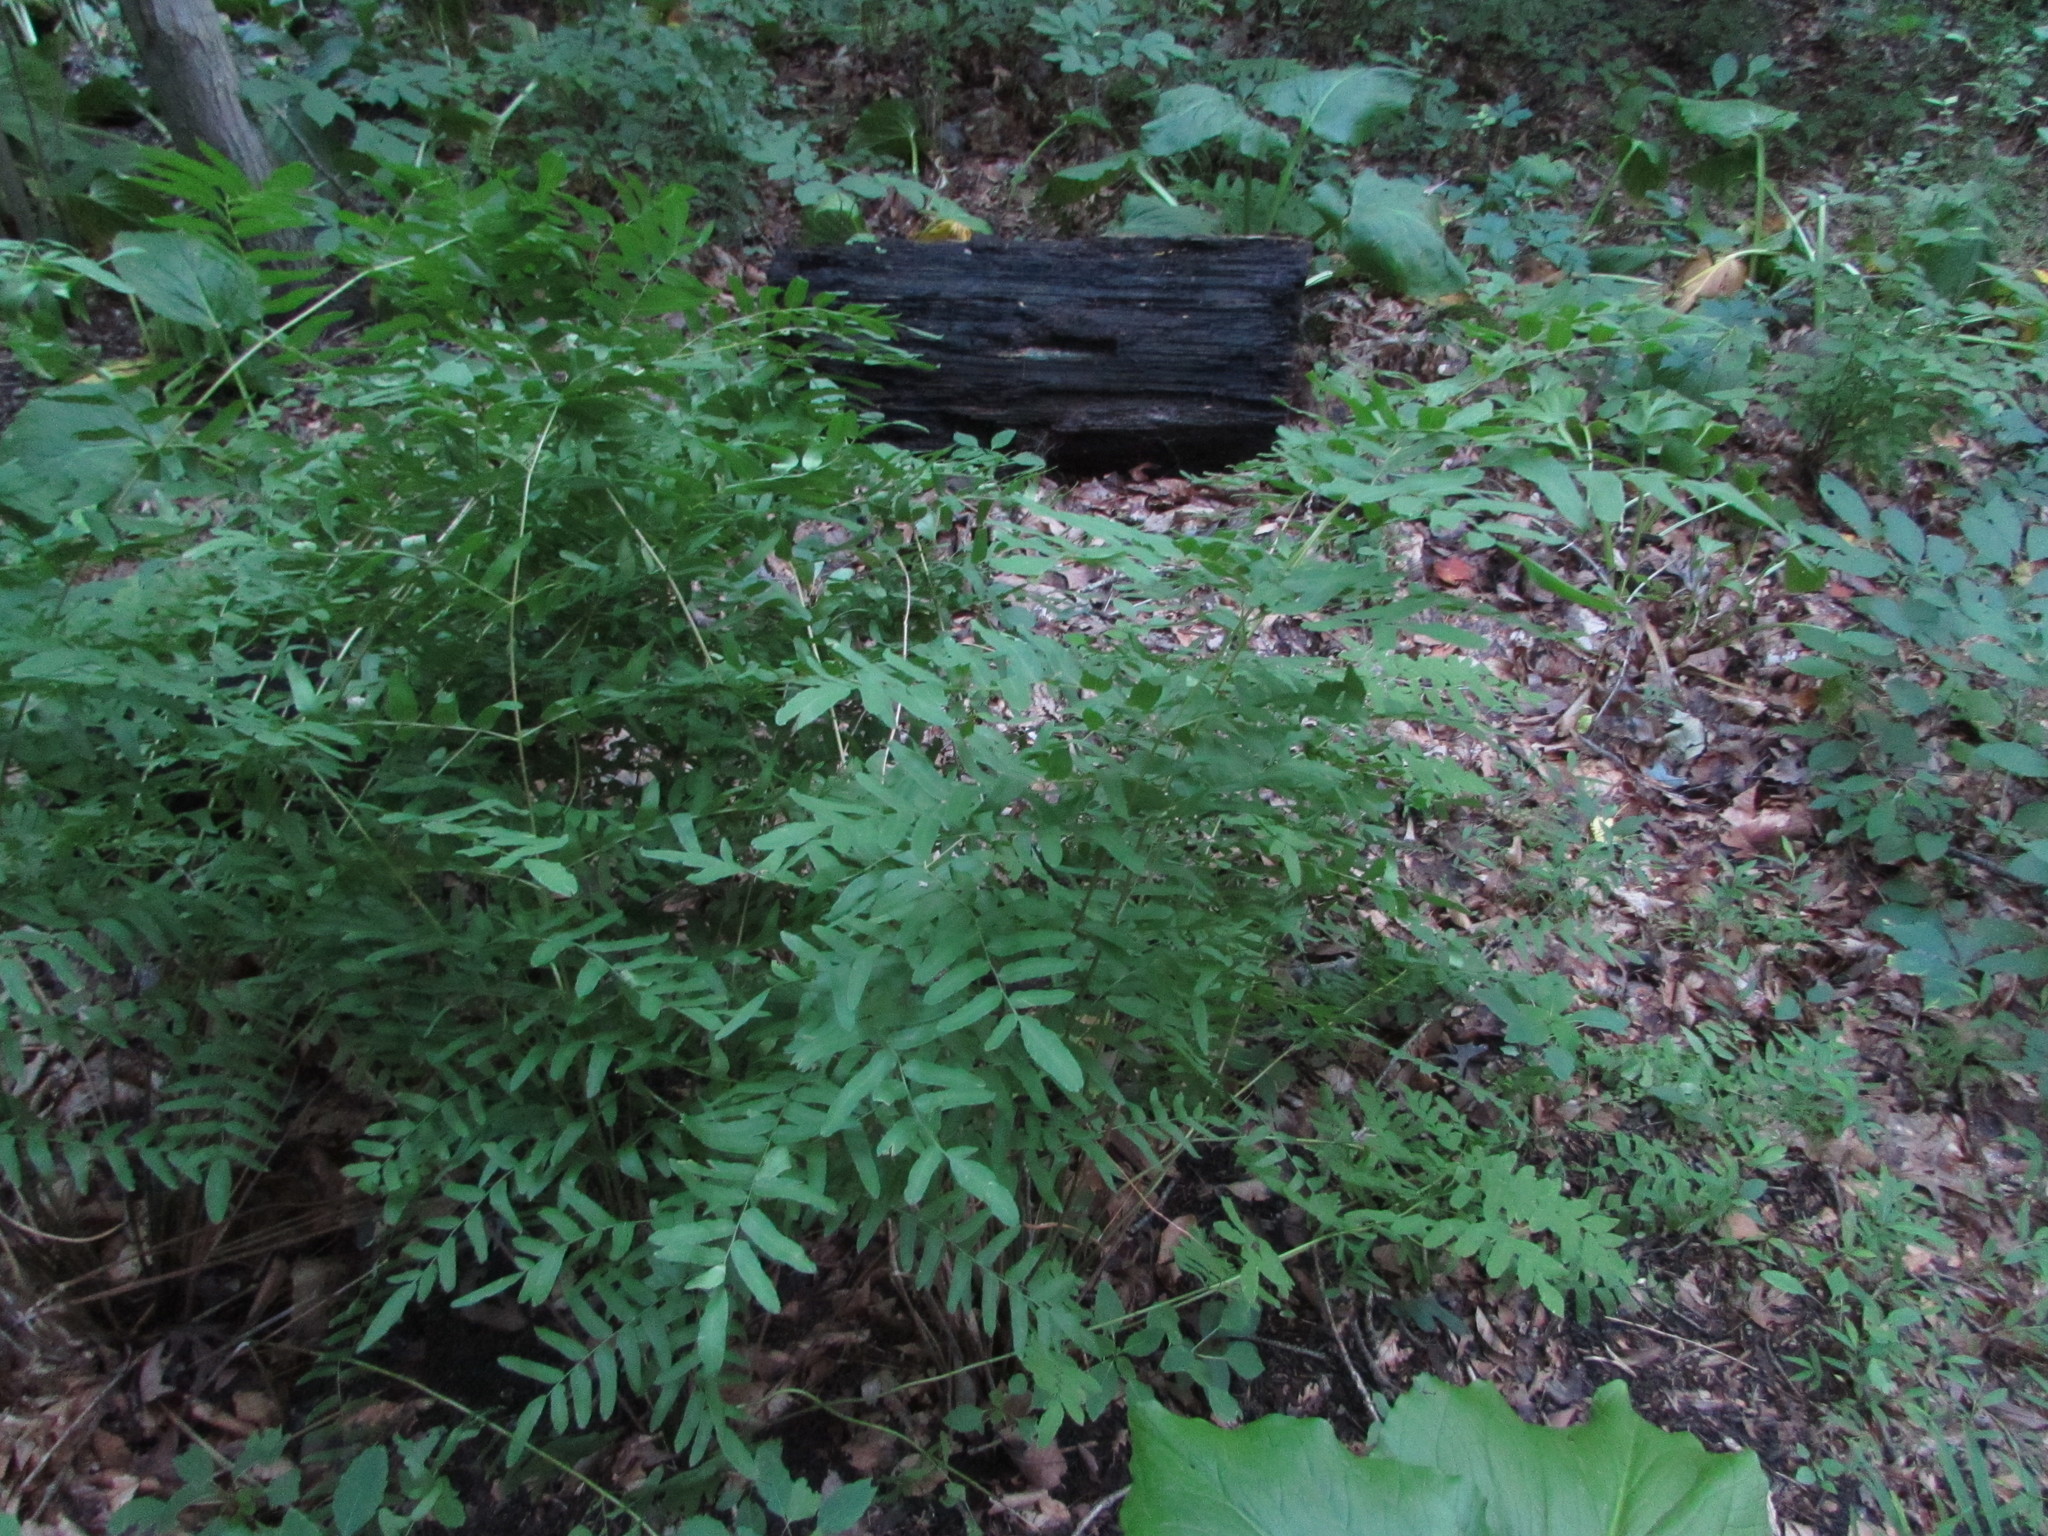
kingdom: Plantae
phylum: Tracheophyta
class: Polypodiopsida
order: Osmundales
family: Osmundaceae
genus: Osmunda
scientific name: Osmunda spectabilis
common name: American royal fern
